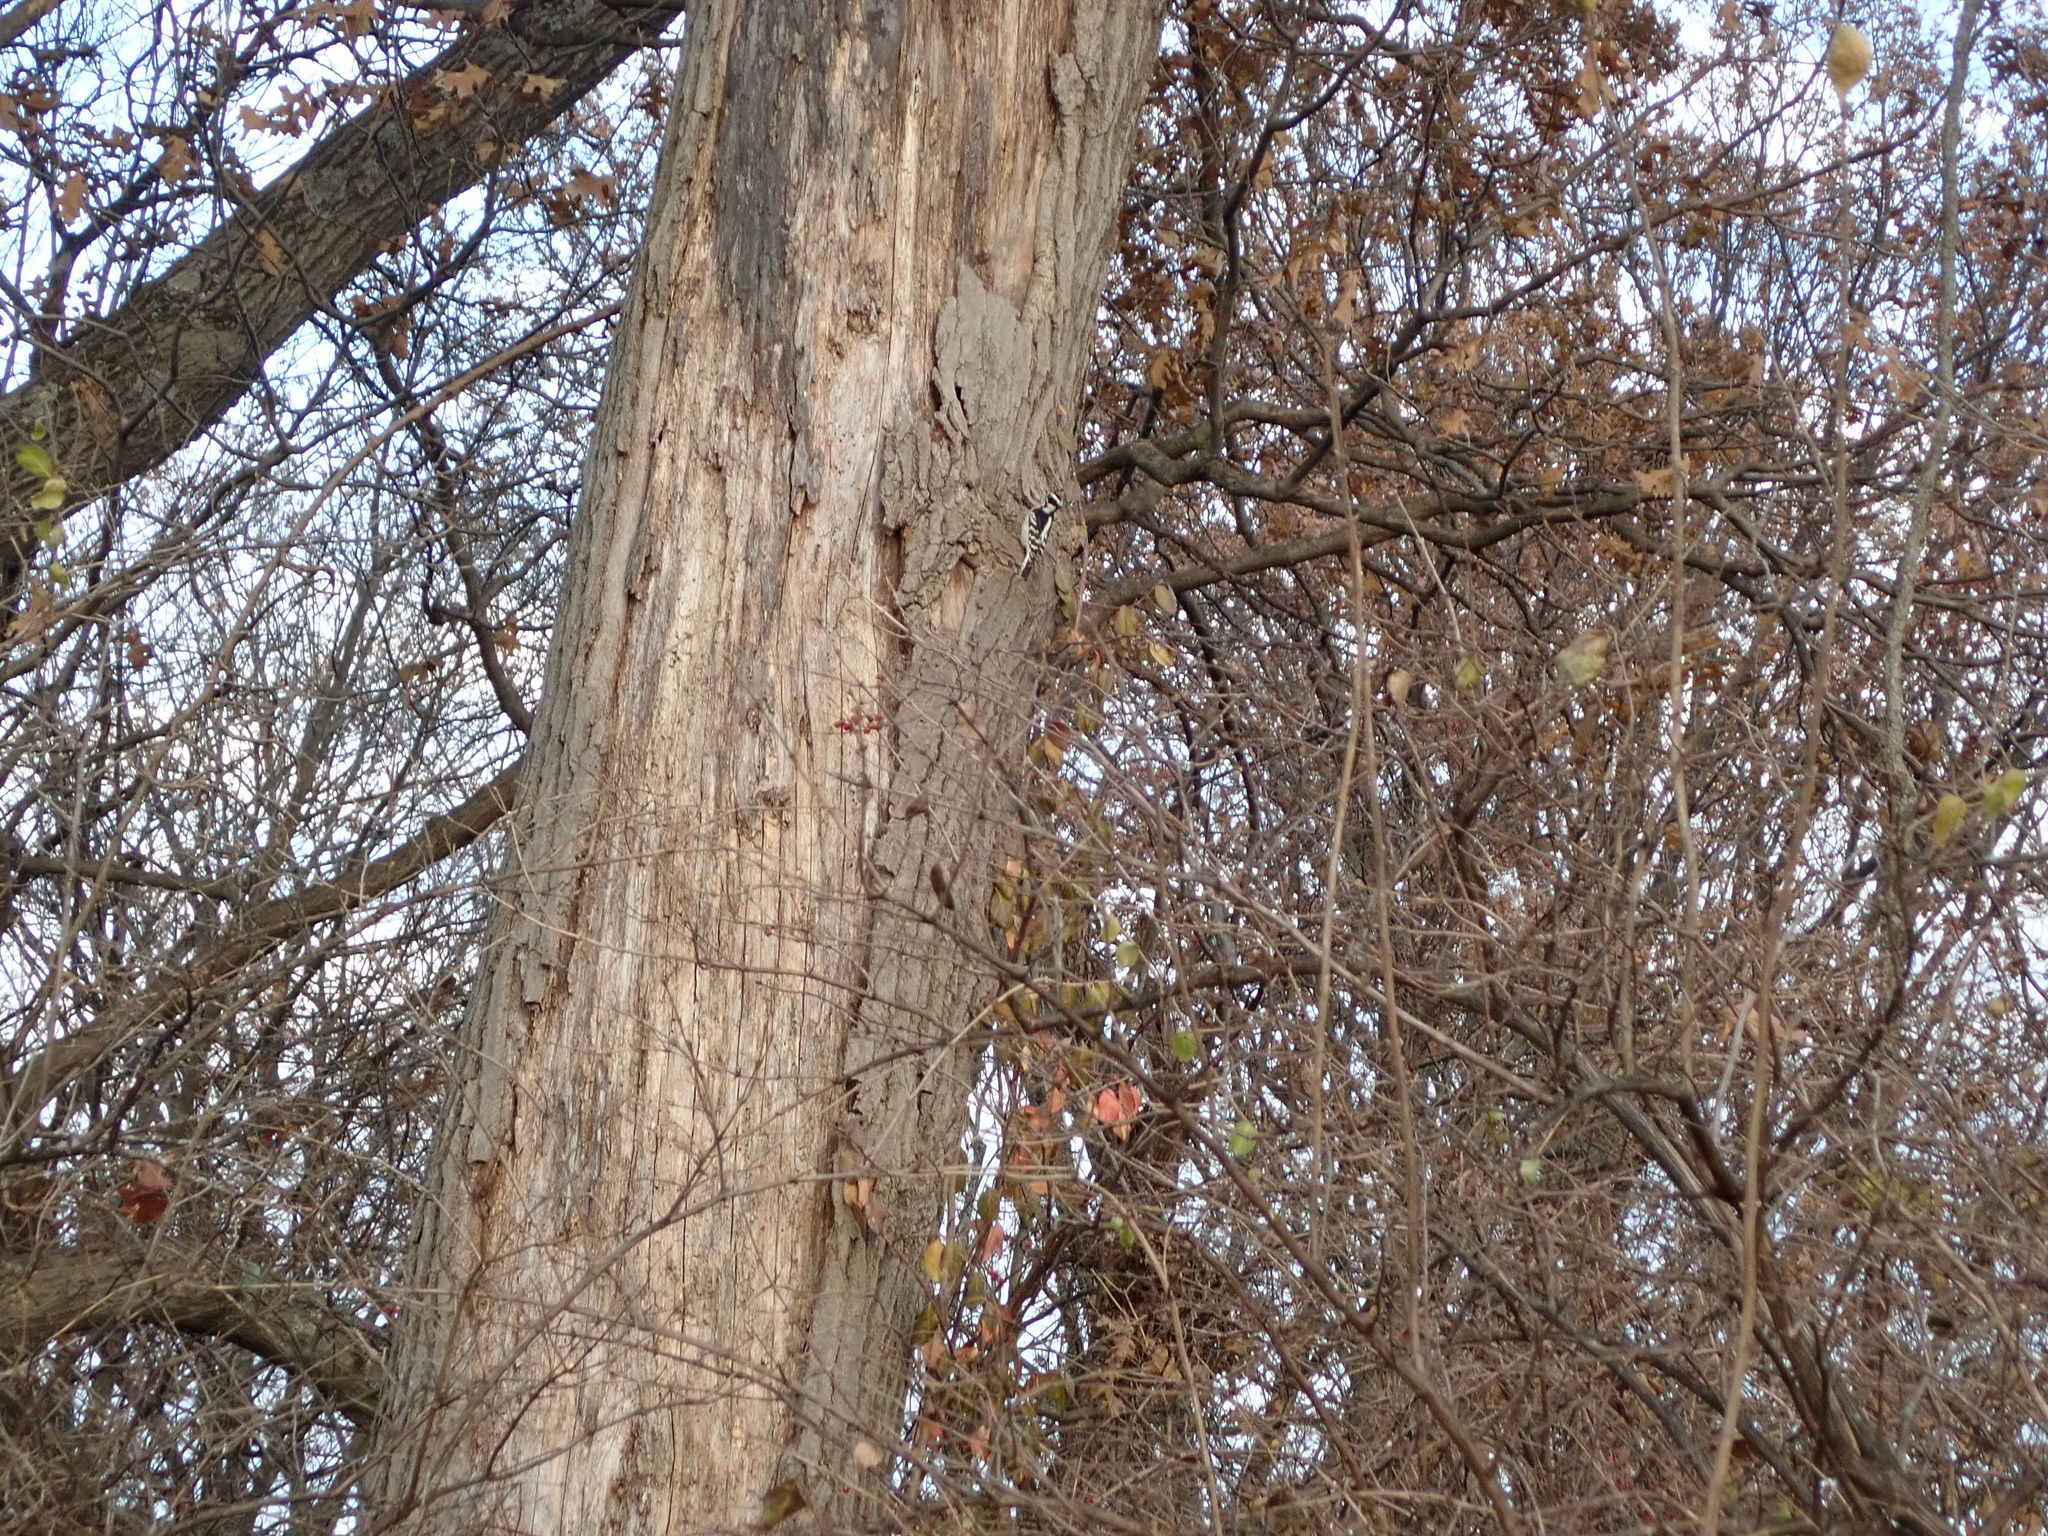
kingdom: Animalia
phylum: Chordata
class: Aves
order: Piciformes
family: Picidae
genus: Dryobates
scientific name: Dryobates pubescens
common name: Downy woodpecker
